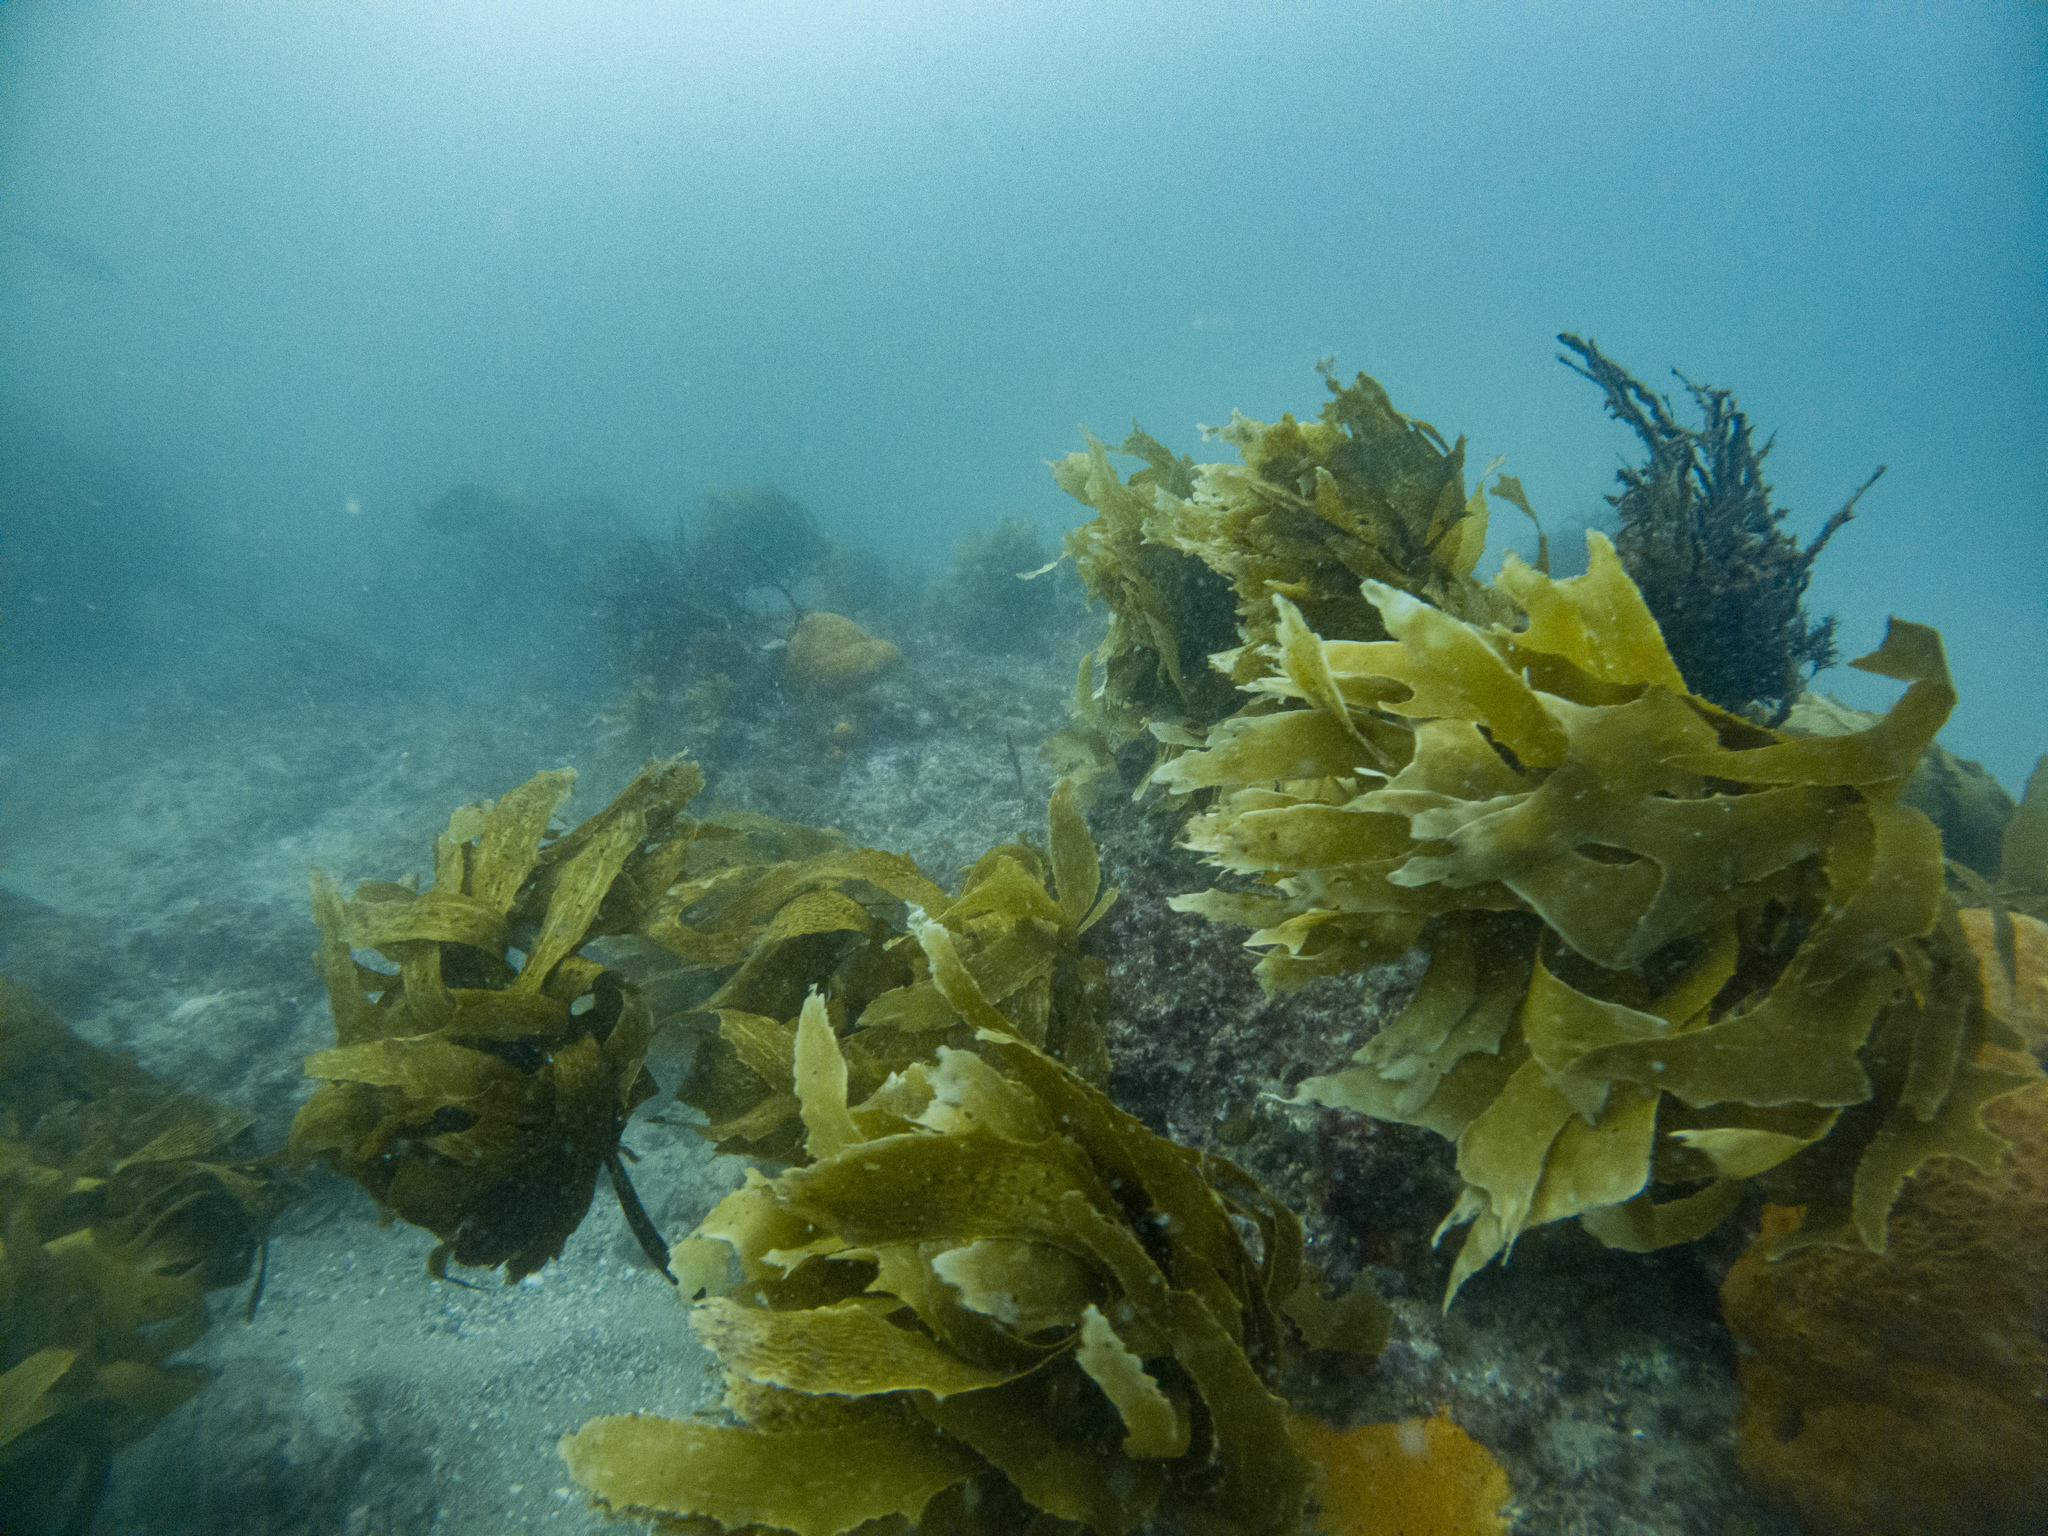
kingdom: Chromista
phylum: Ochrophyta
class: Phaeophyceae
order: Laminariales
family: Lessoniaceae
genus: Ecklonia
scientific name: Ecklonia radiata
